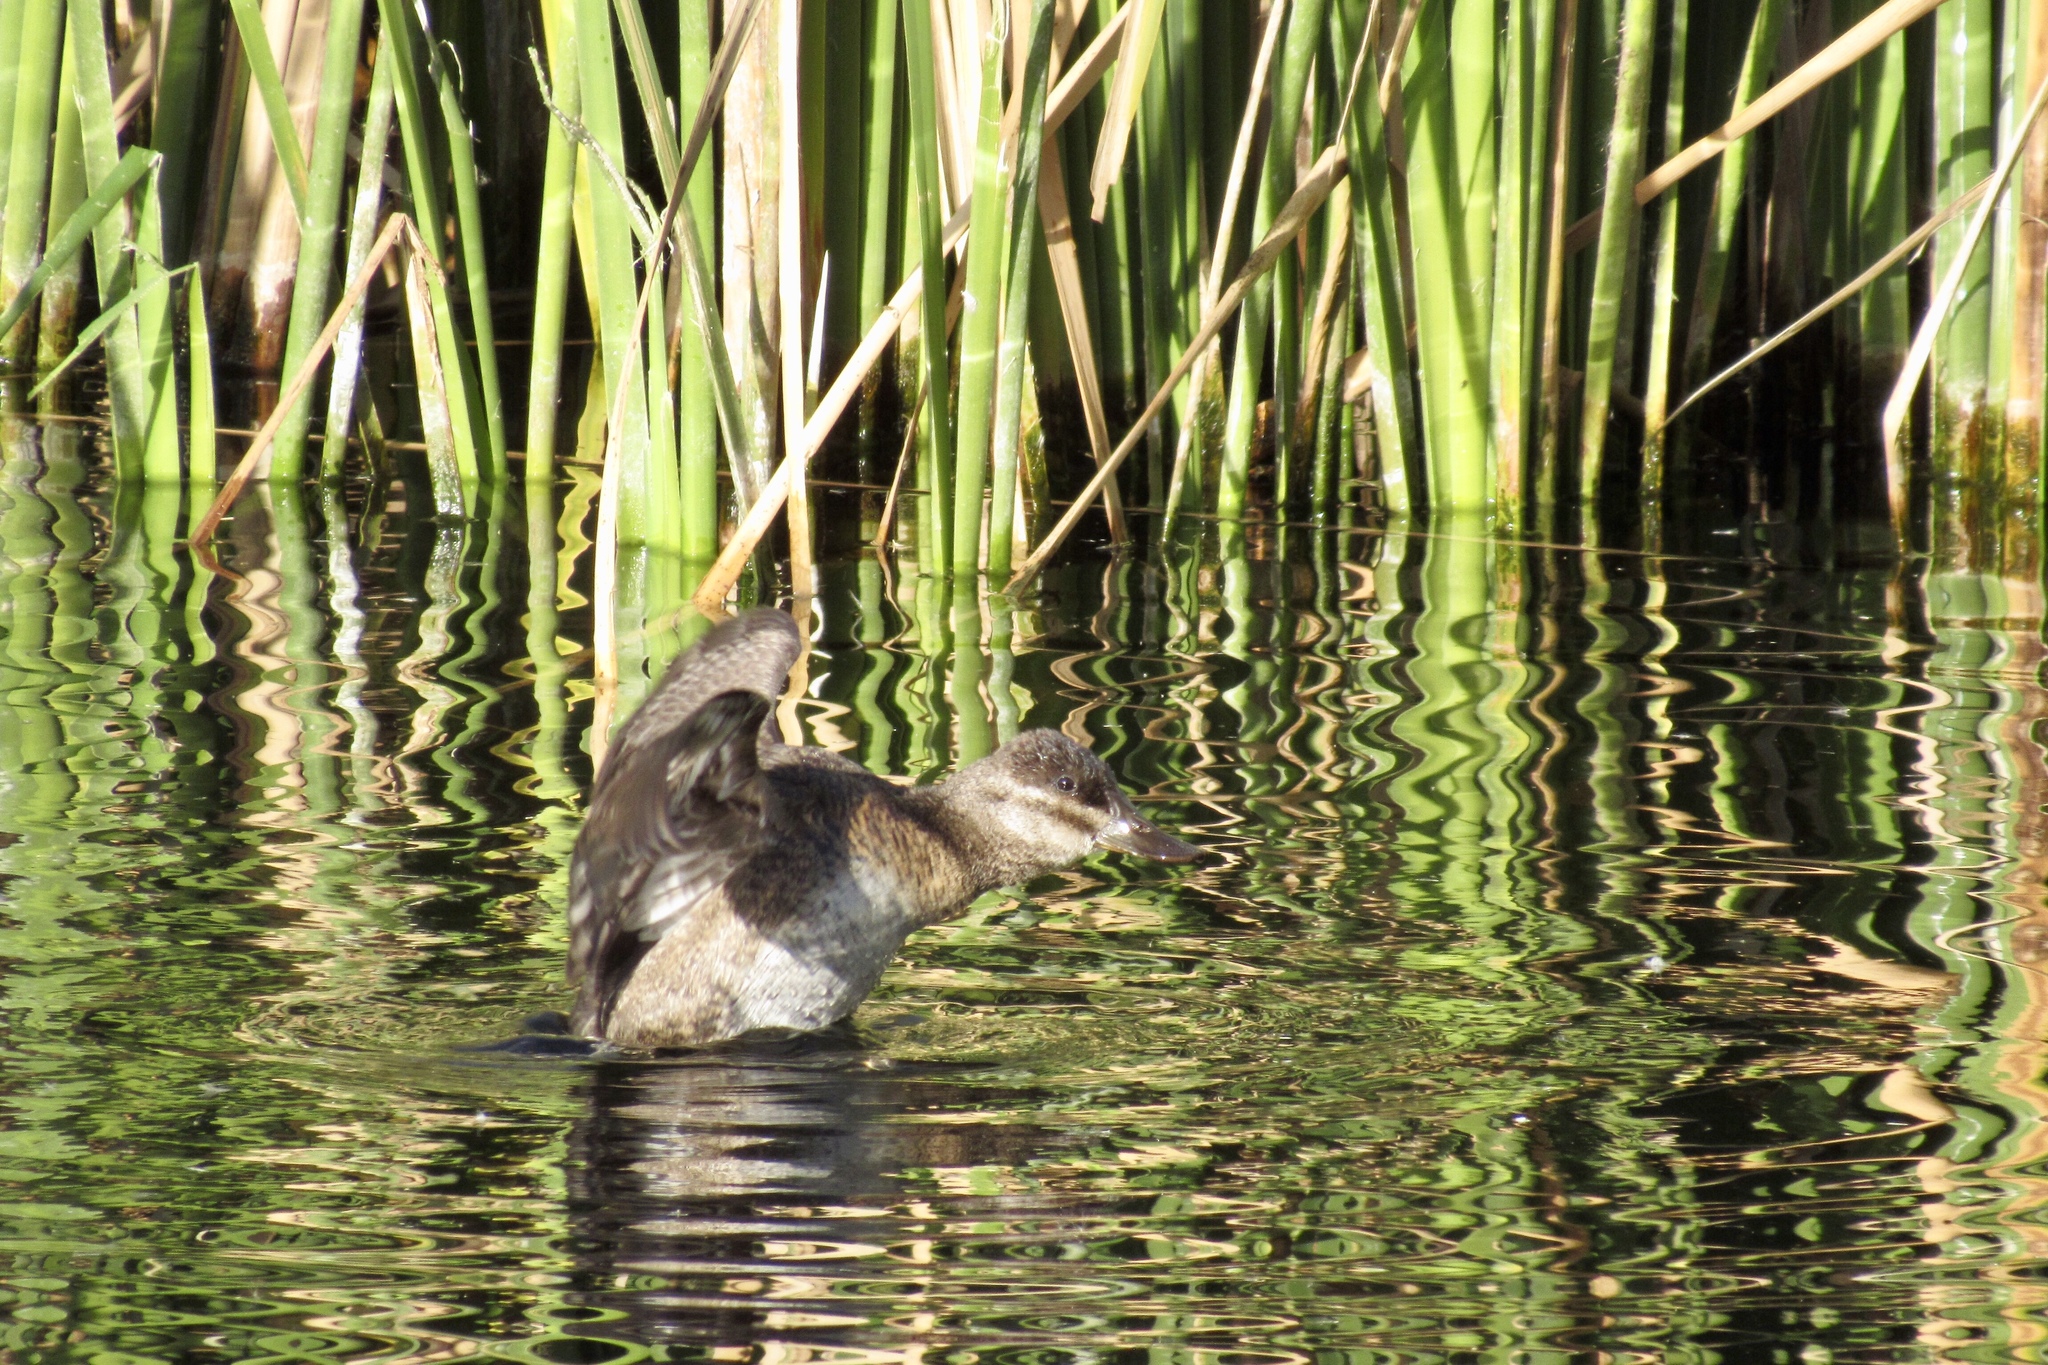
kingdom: Animalia
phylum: Chordata
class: Aves
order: Anseriformes
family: Anatidae
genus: Oxyura
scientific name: Oxyura jamaicensis
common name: Ruddy duck
